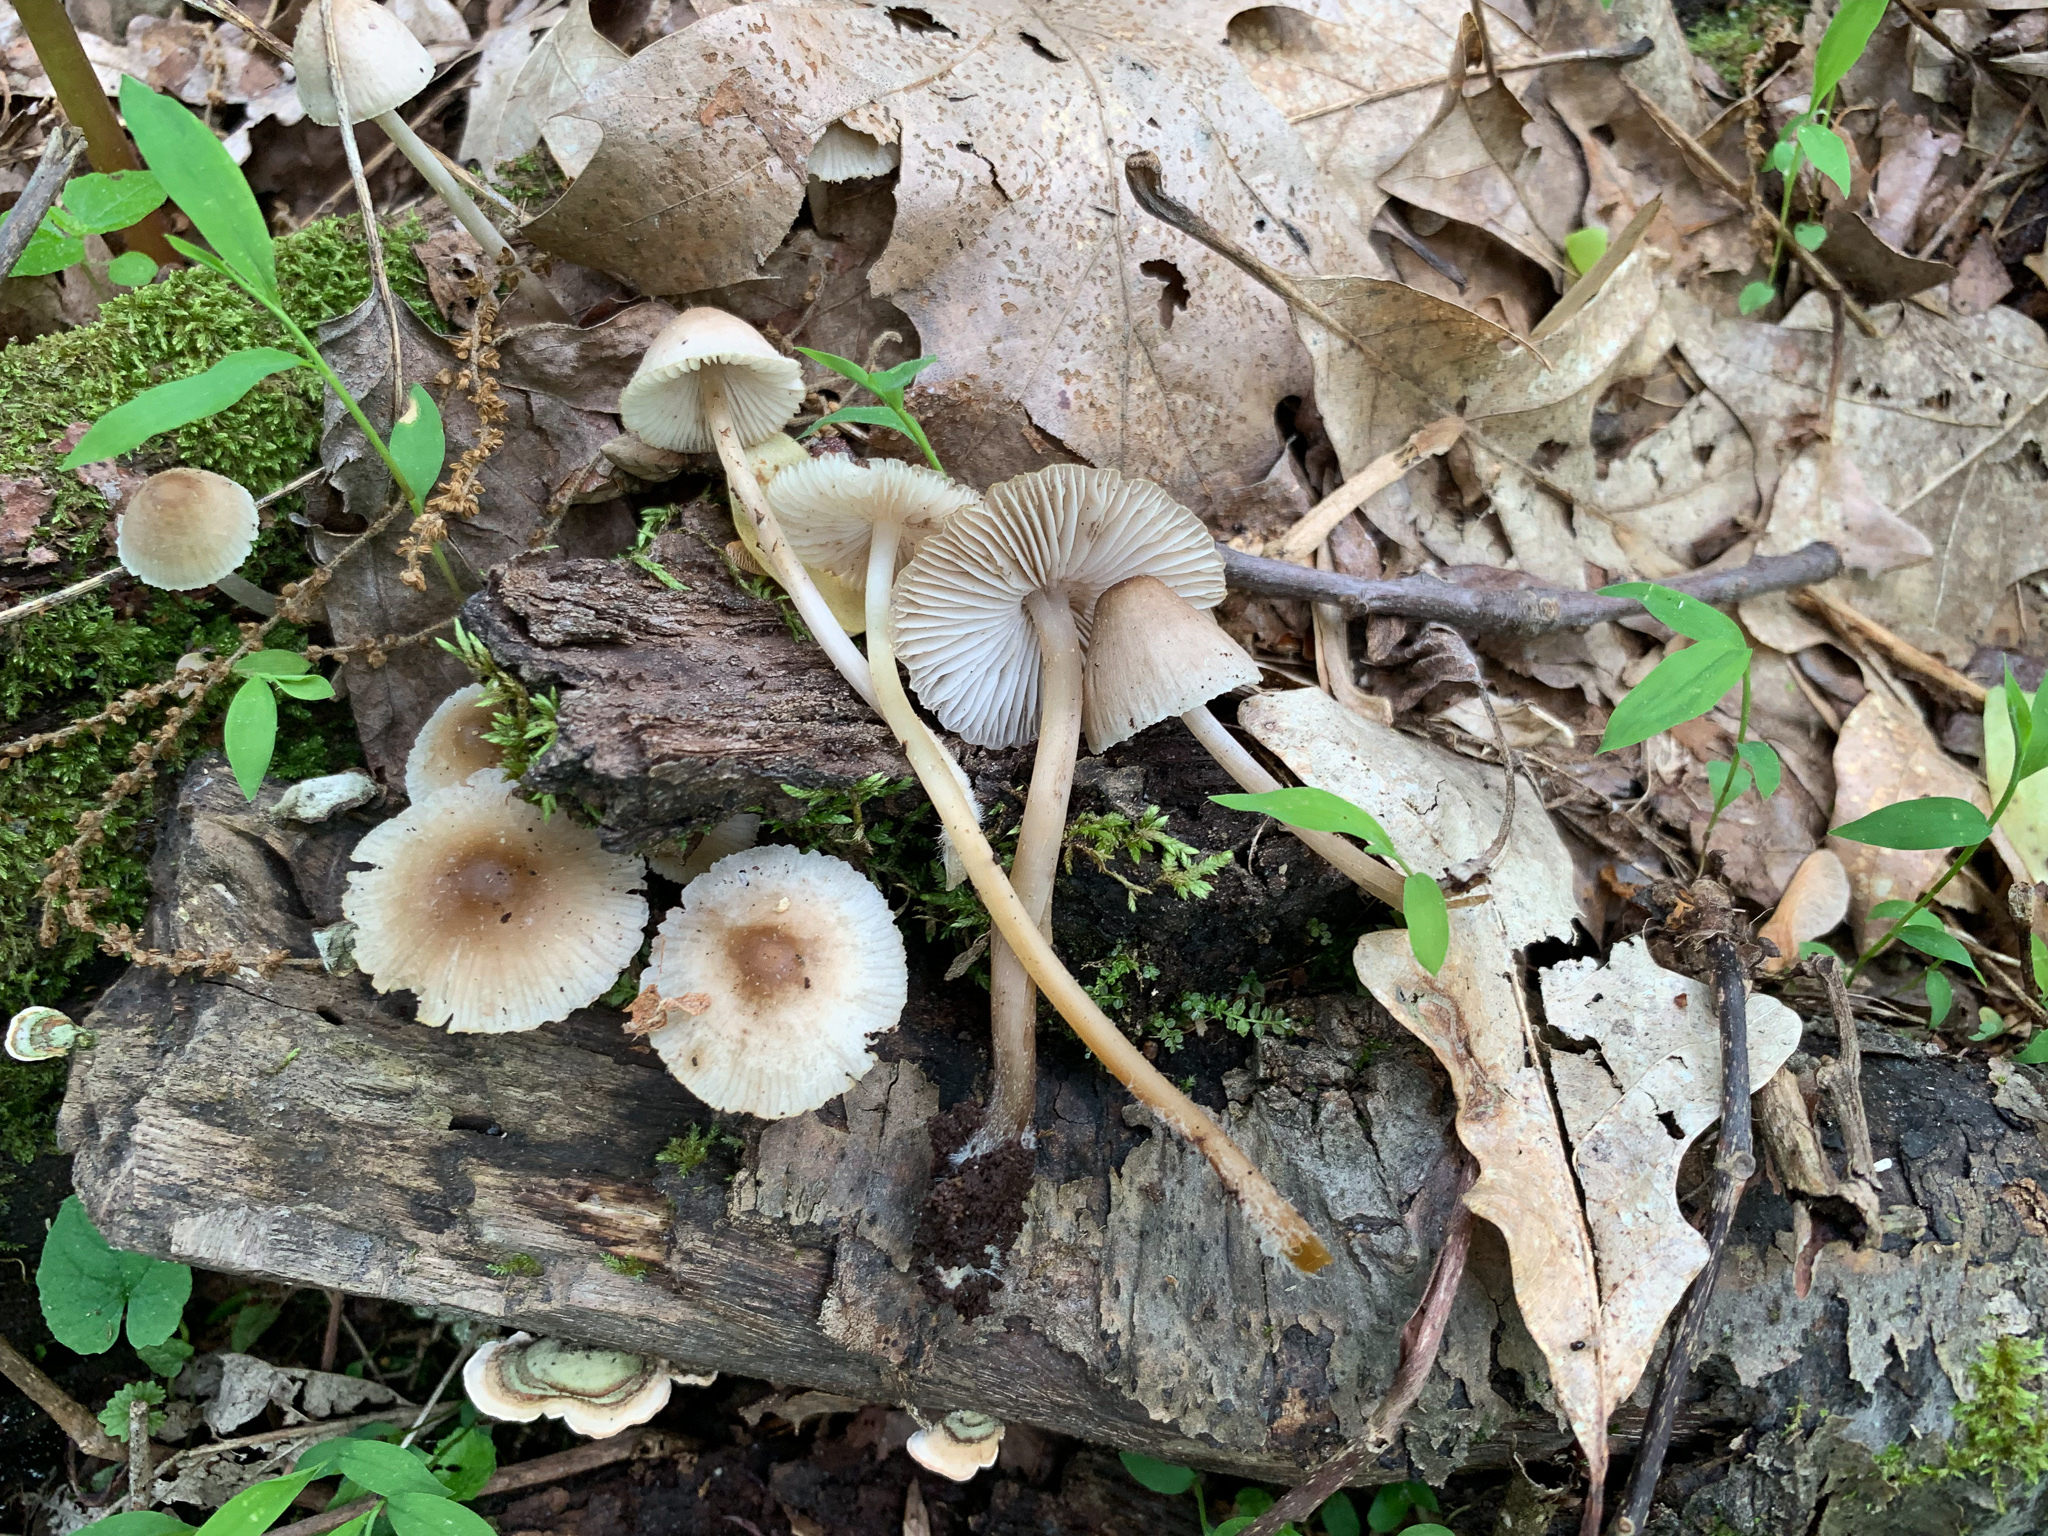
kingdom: Fungi
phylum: Basidiomycota
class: Agaricomycetes
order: Agaricales
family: Mycenaceae
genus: Mycena
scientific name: Mycena galericulata
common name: Bonnet mycena
